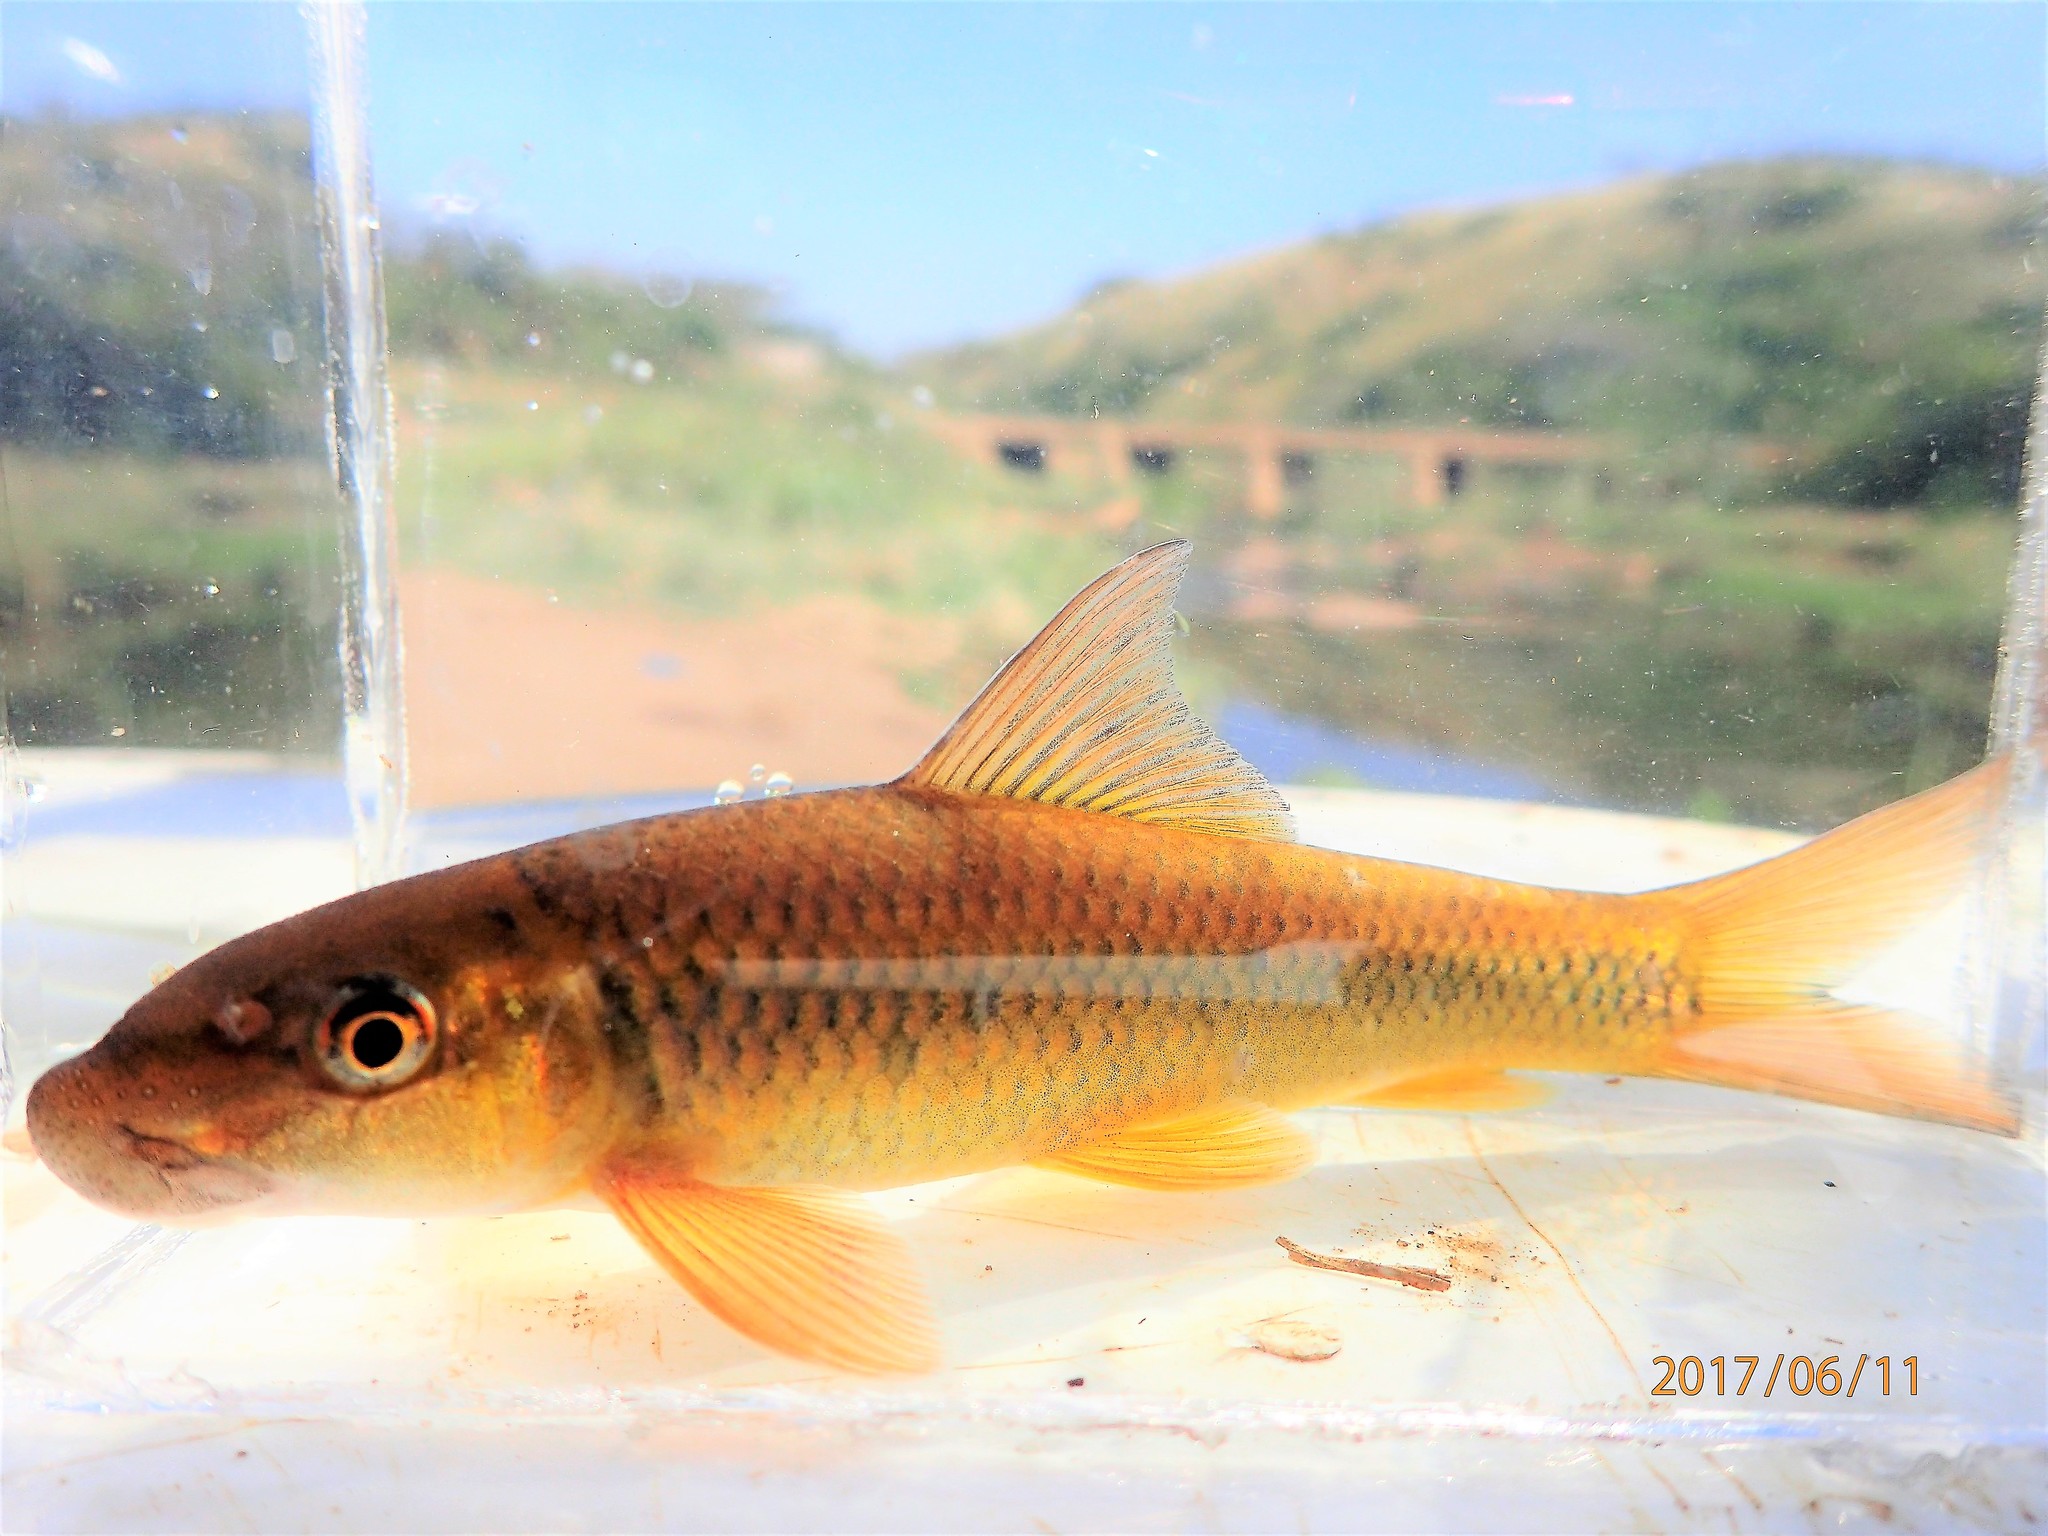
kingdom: Animalia
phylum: Chordata
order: Cypriniformes
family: Cyprinidae
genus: Labeo
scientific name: Labeo molybdinus
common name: Leaden labeo
